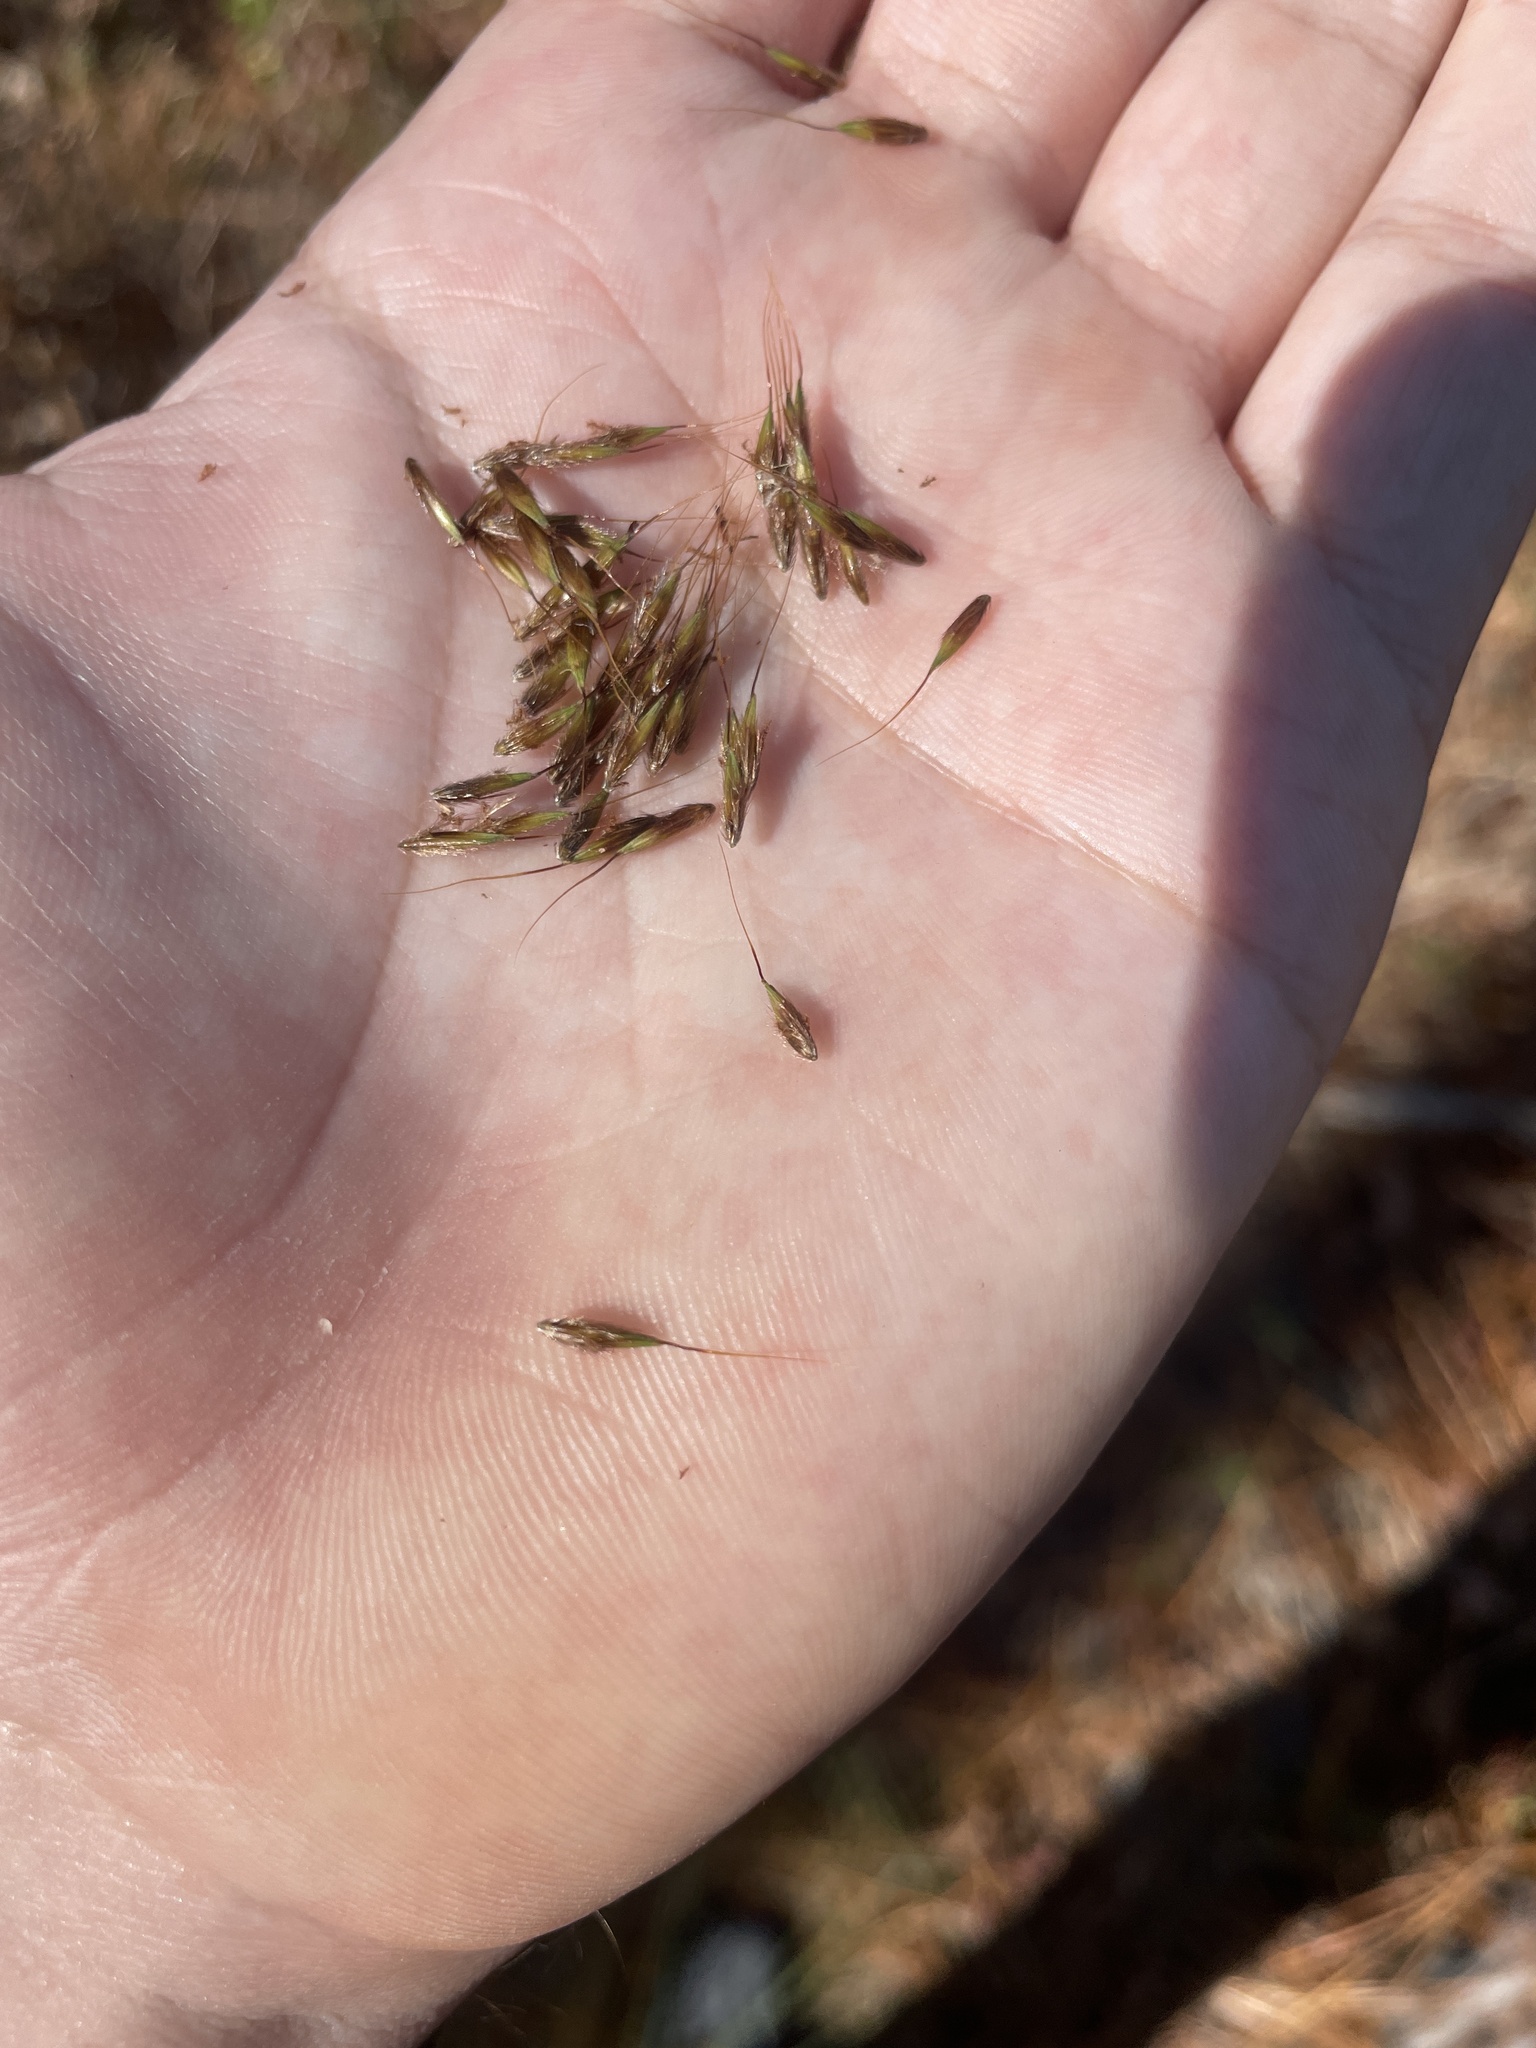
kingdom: Plantae
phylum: Tracheophyta
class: Liliopsida
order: Poales
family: Poaceae
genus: Sorghastrum
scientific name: Sorghastrum nutans
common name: Indian grass
